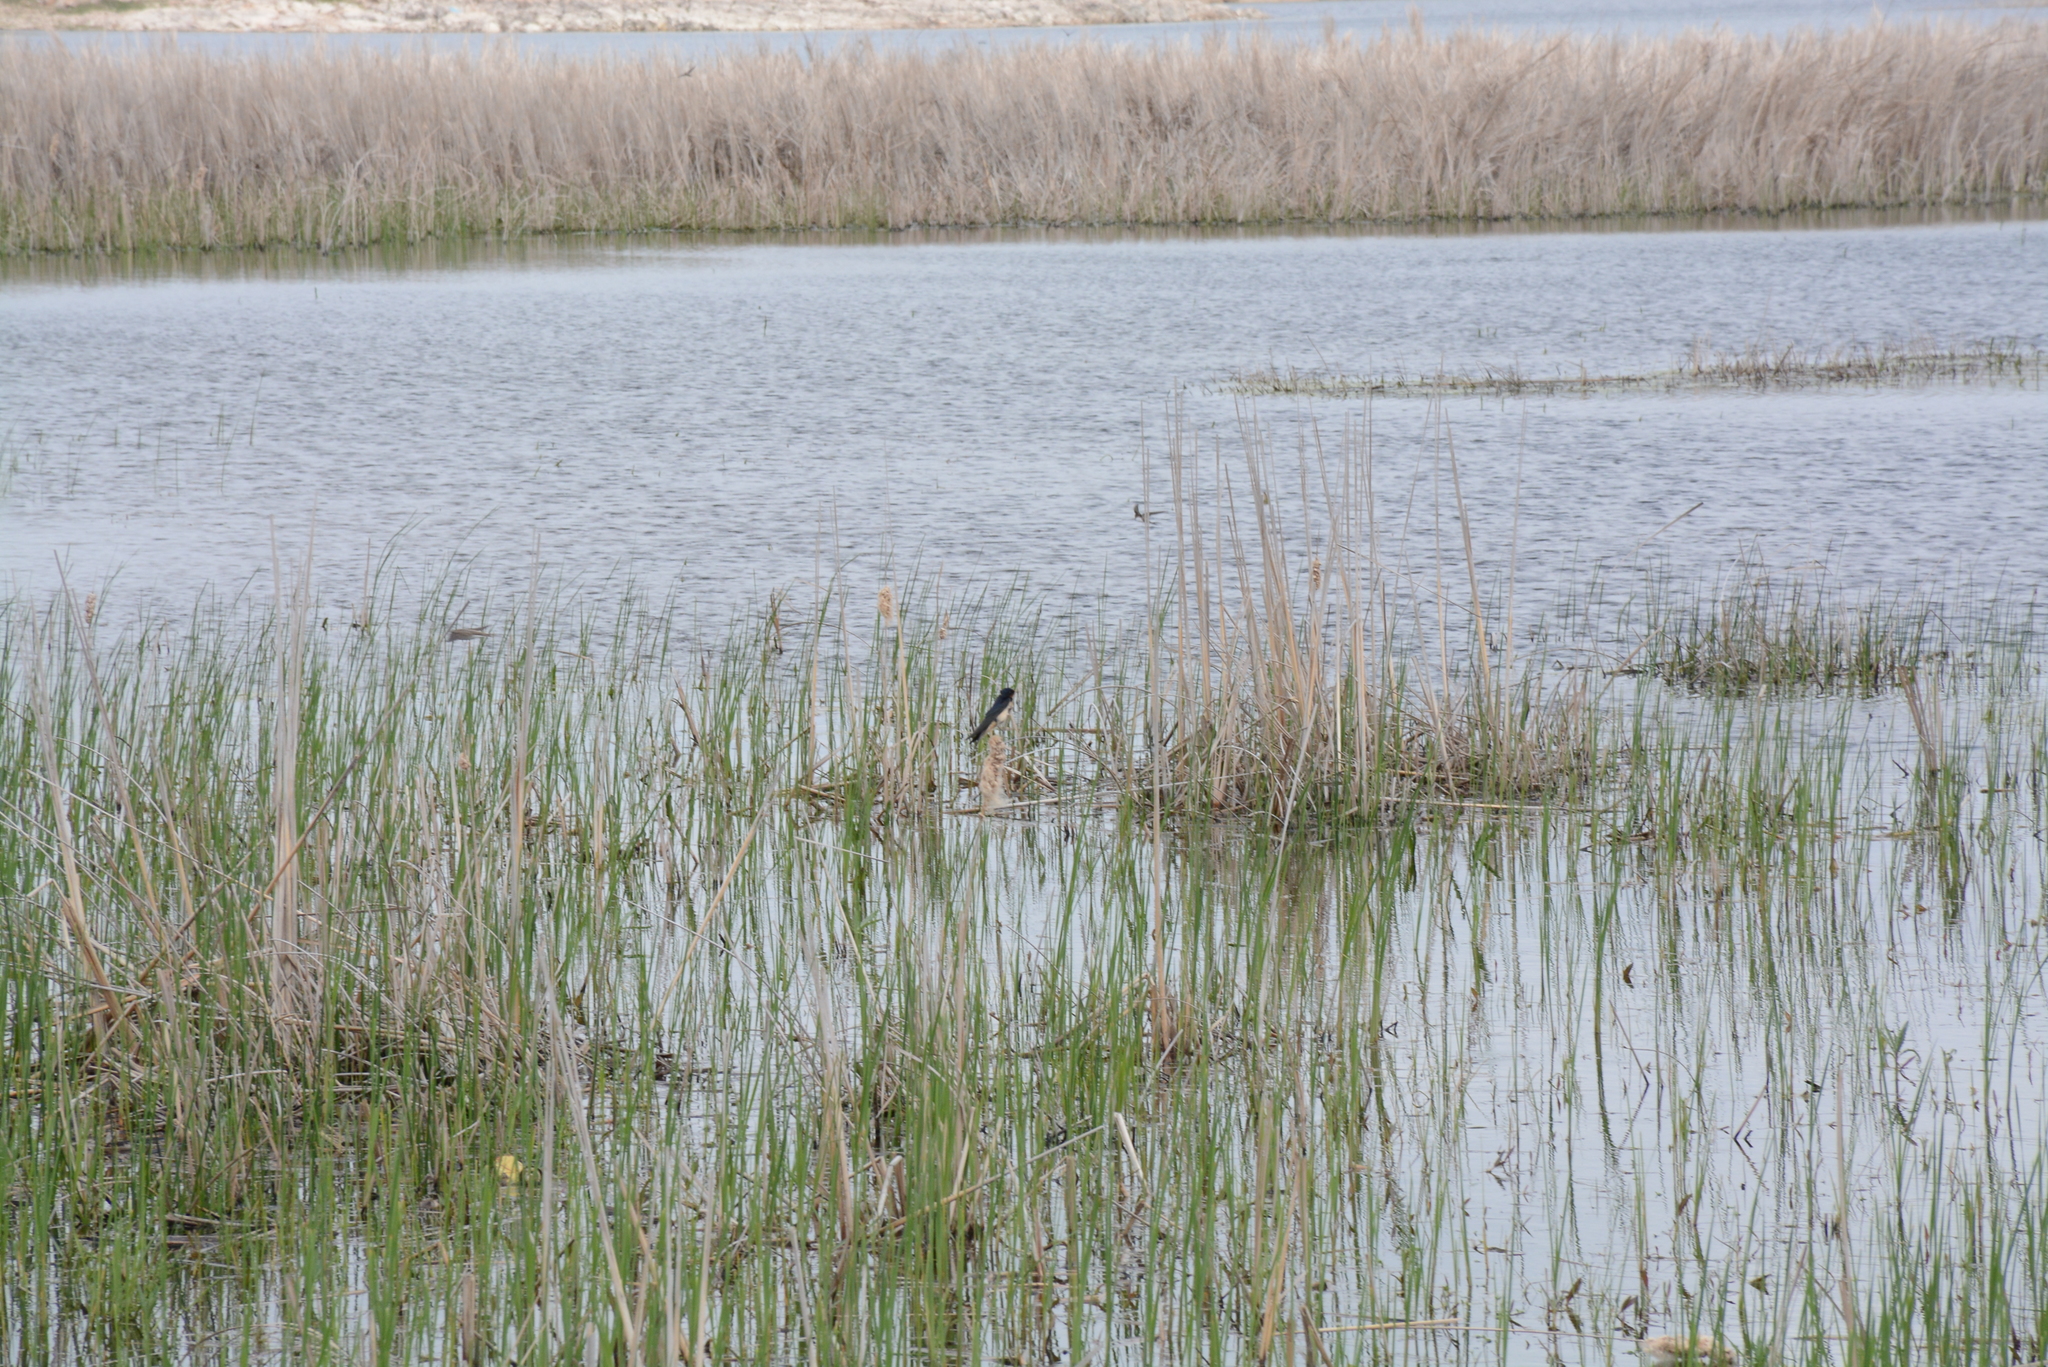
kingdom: Animalia
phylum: Chordata
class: Aves
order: Passeriformes
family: Hirundinidae
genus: Hirundo
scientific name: Hirundo rustica
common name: Barn swallow
